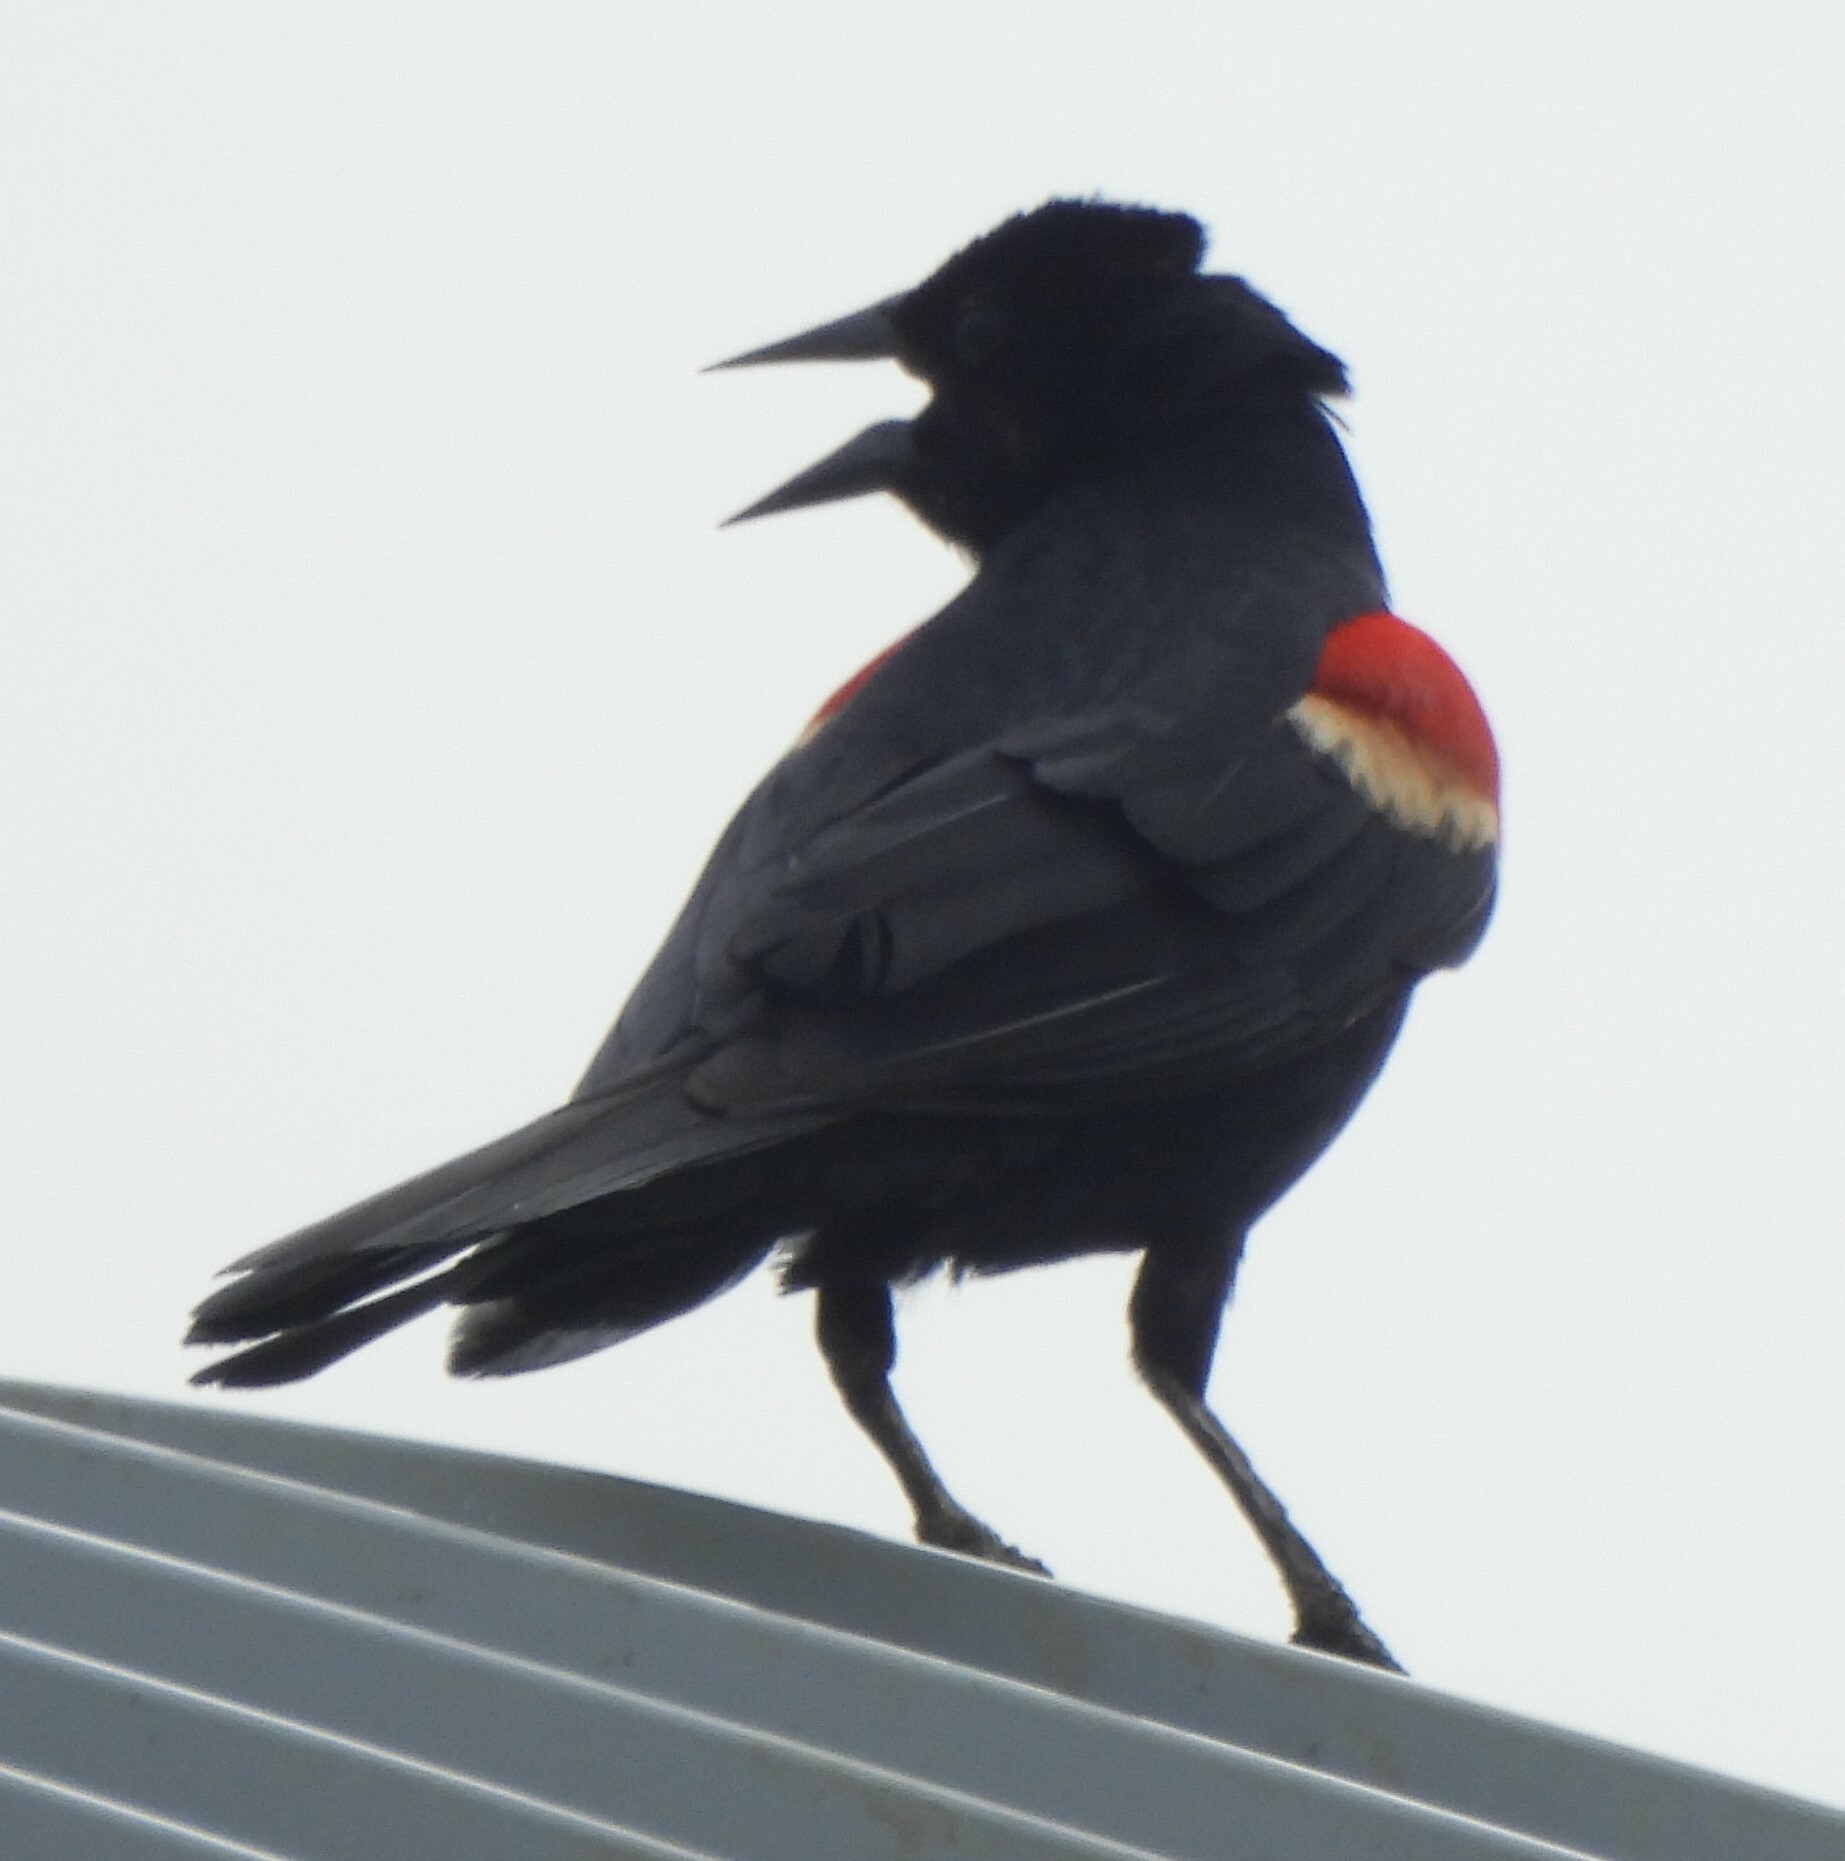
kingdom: Animalia
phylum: Chordata
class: Aves
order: Passeriformes
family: Icteridae
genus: Agelaius
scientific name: Agelaius phoeniceus
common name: Red-winged blackbird
